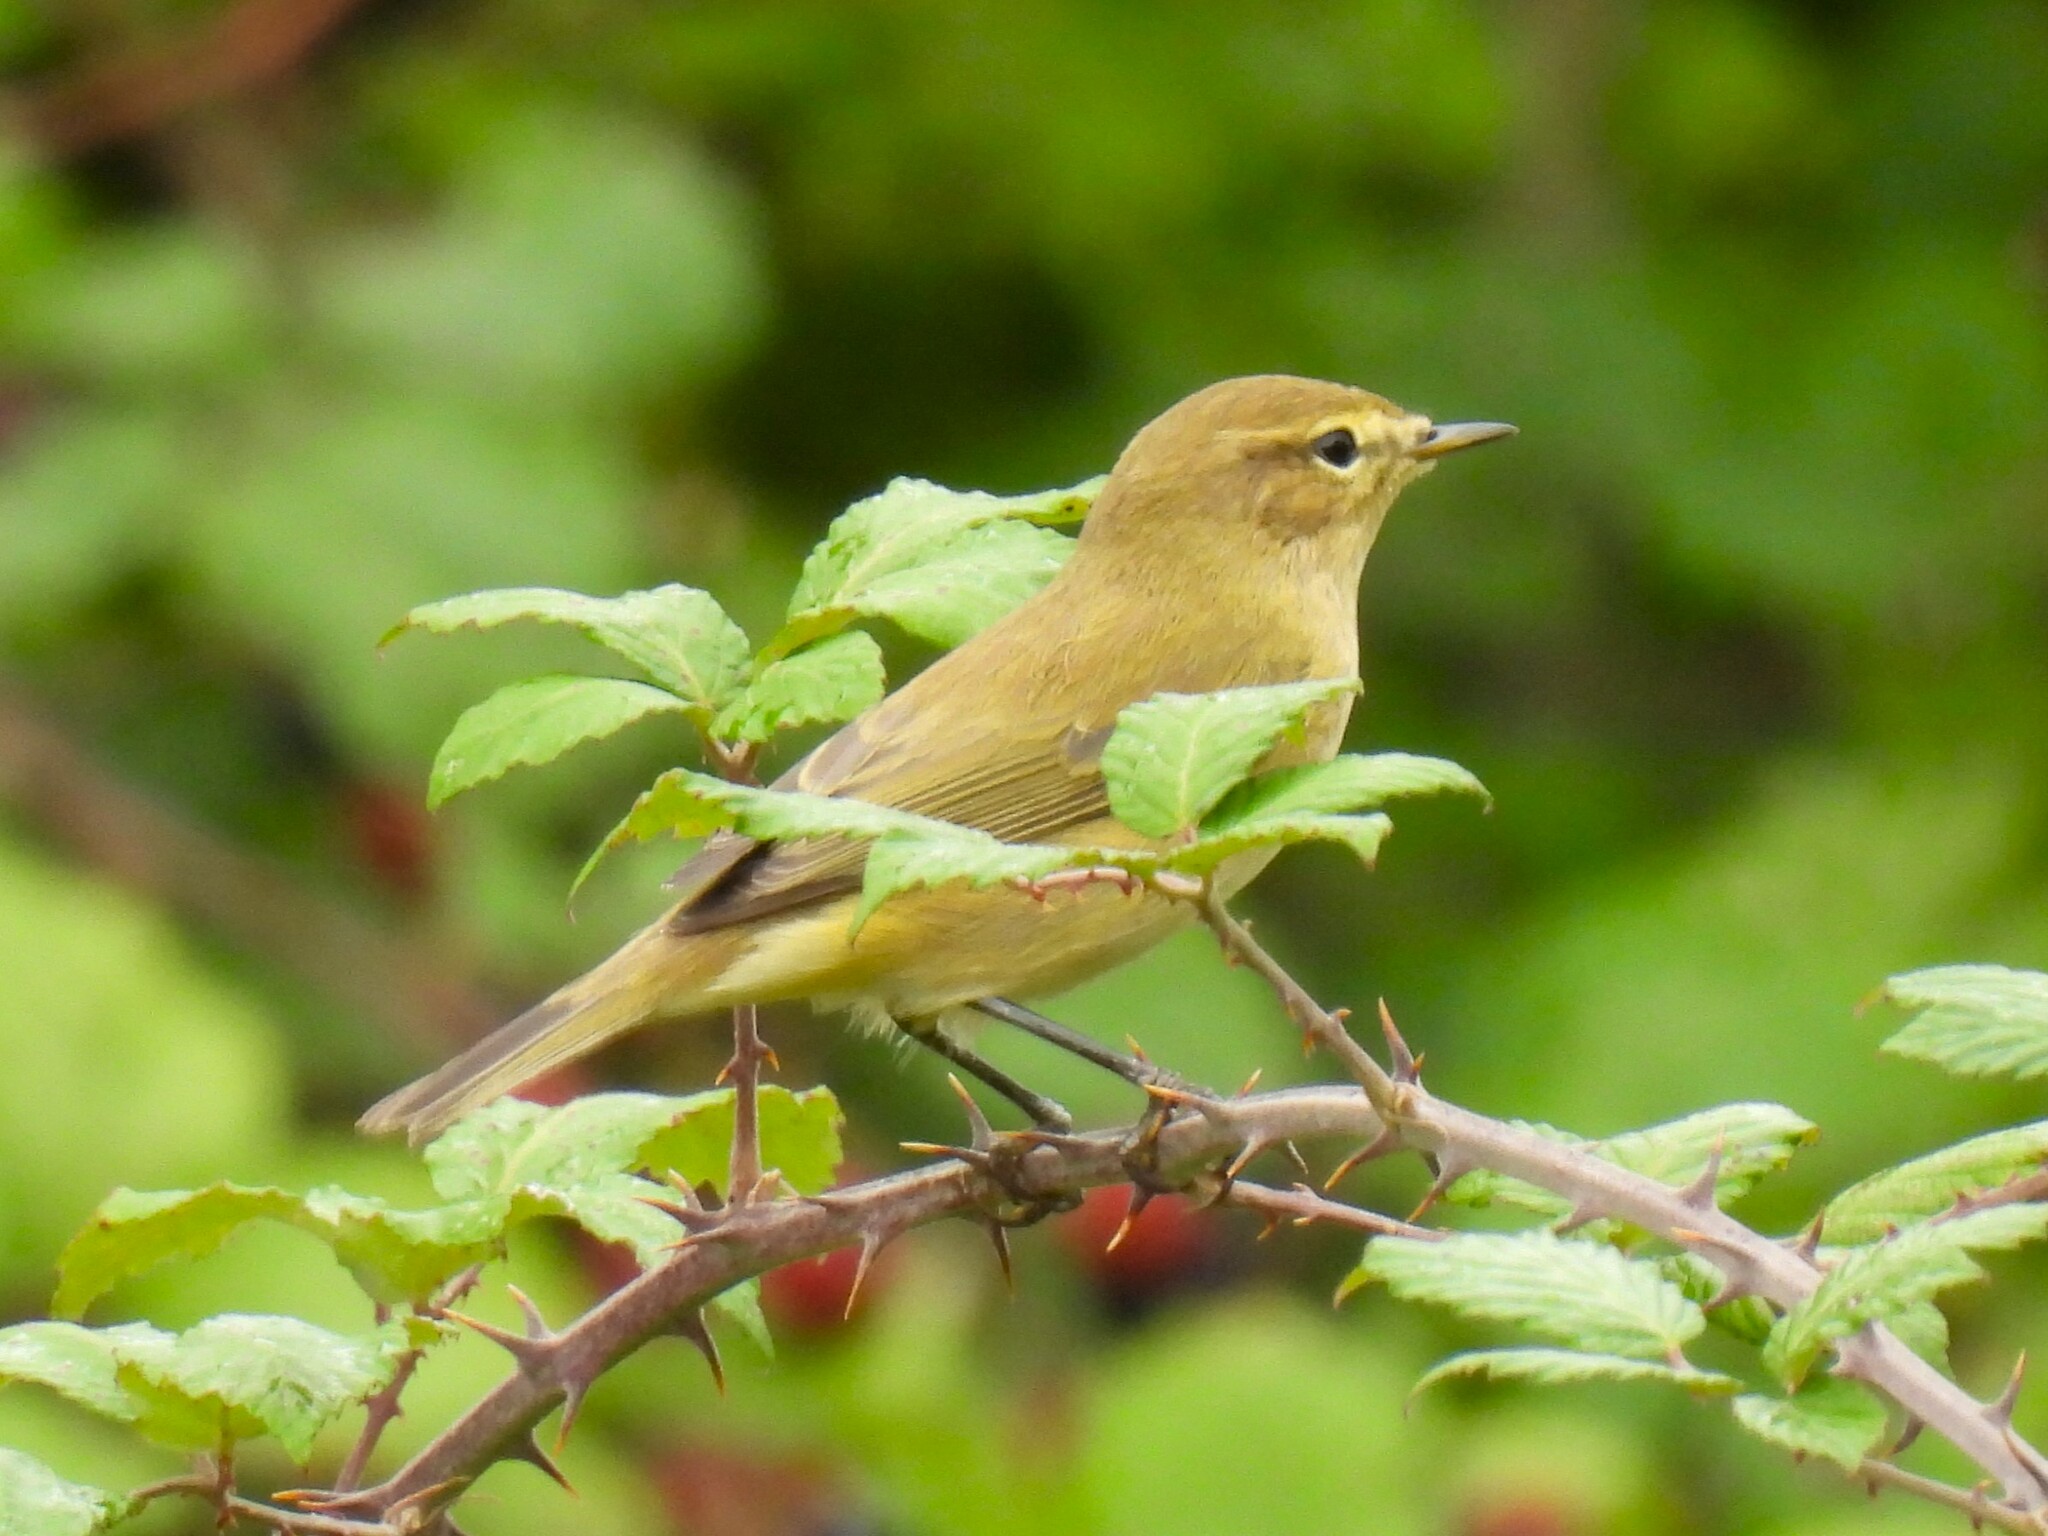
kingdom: Animalia
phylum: Chordata
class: Aves
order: Passeriformes
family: Phylloscopidae
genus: Phylloscopus
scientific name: Phylloscopus collybita
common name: Common chiffchaff
